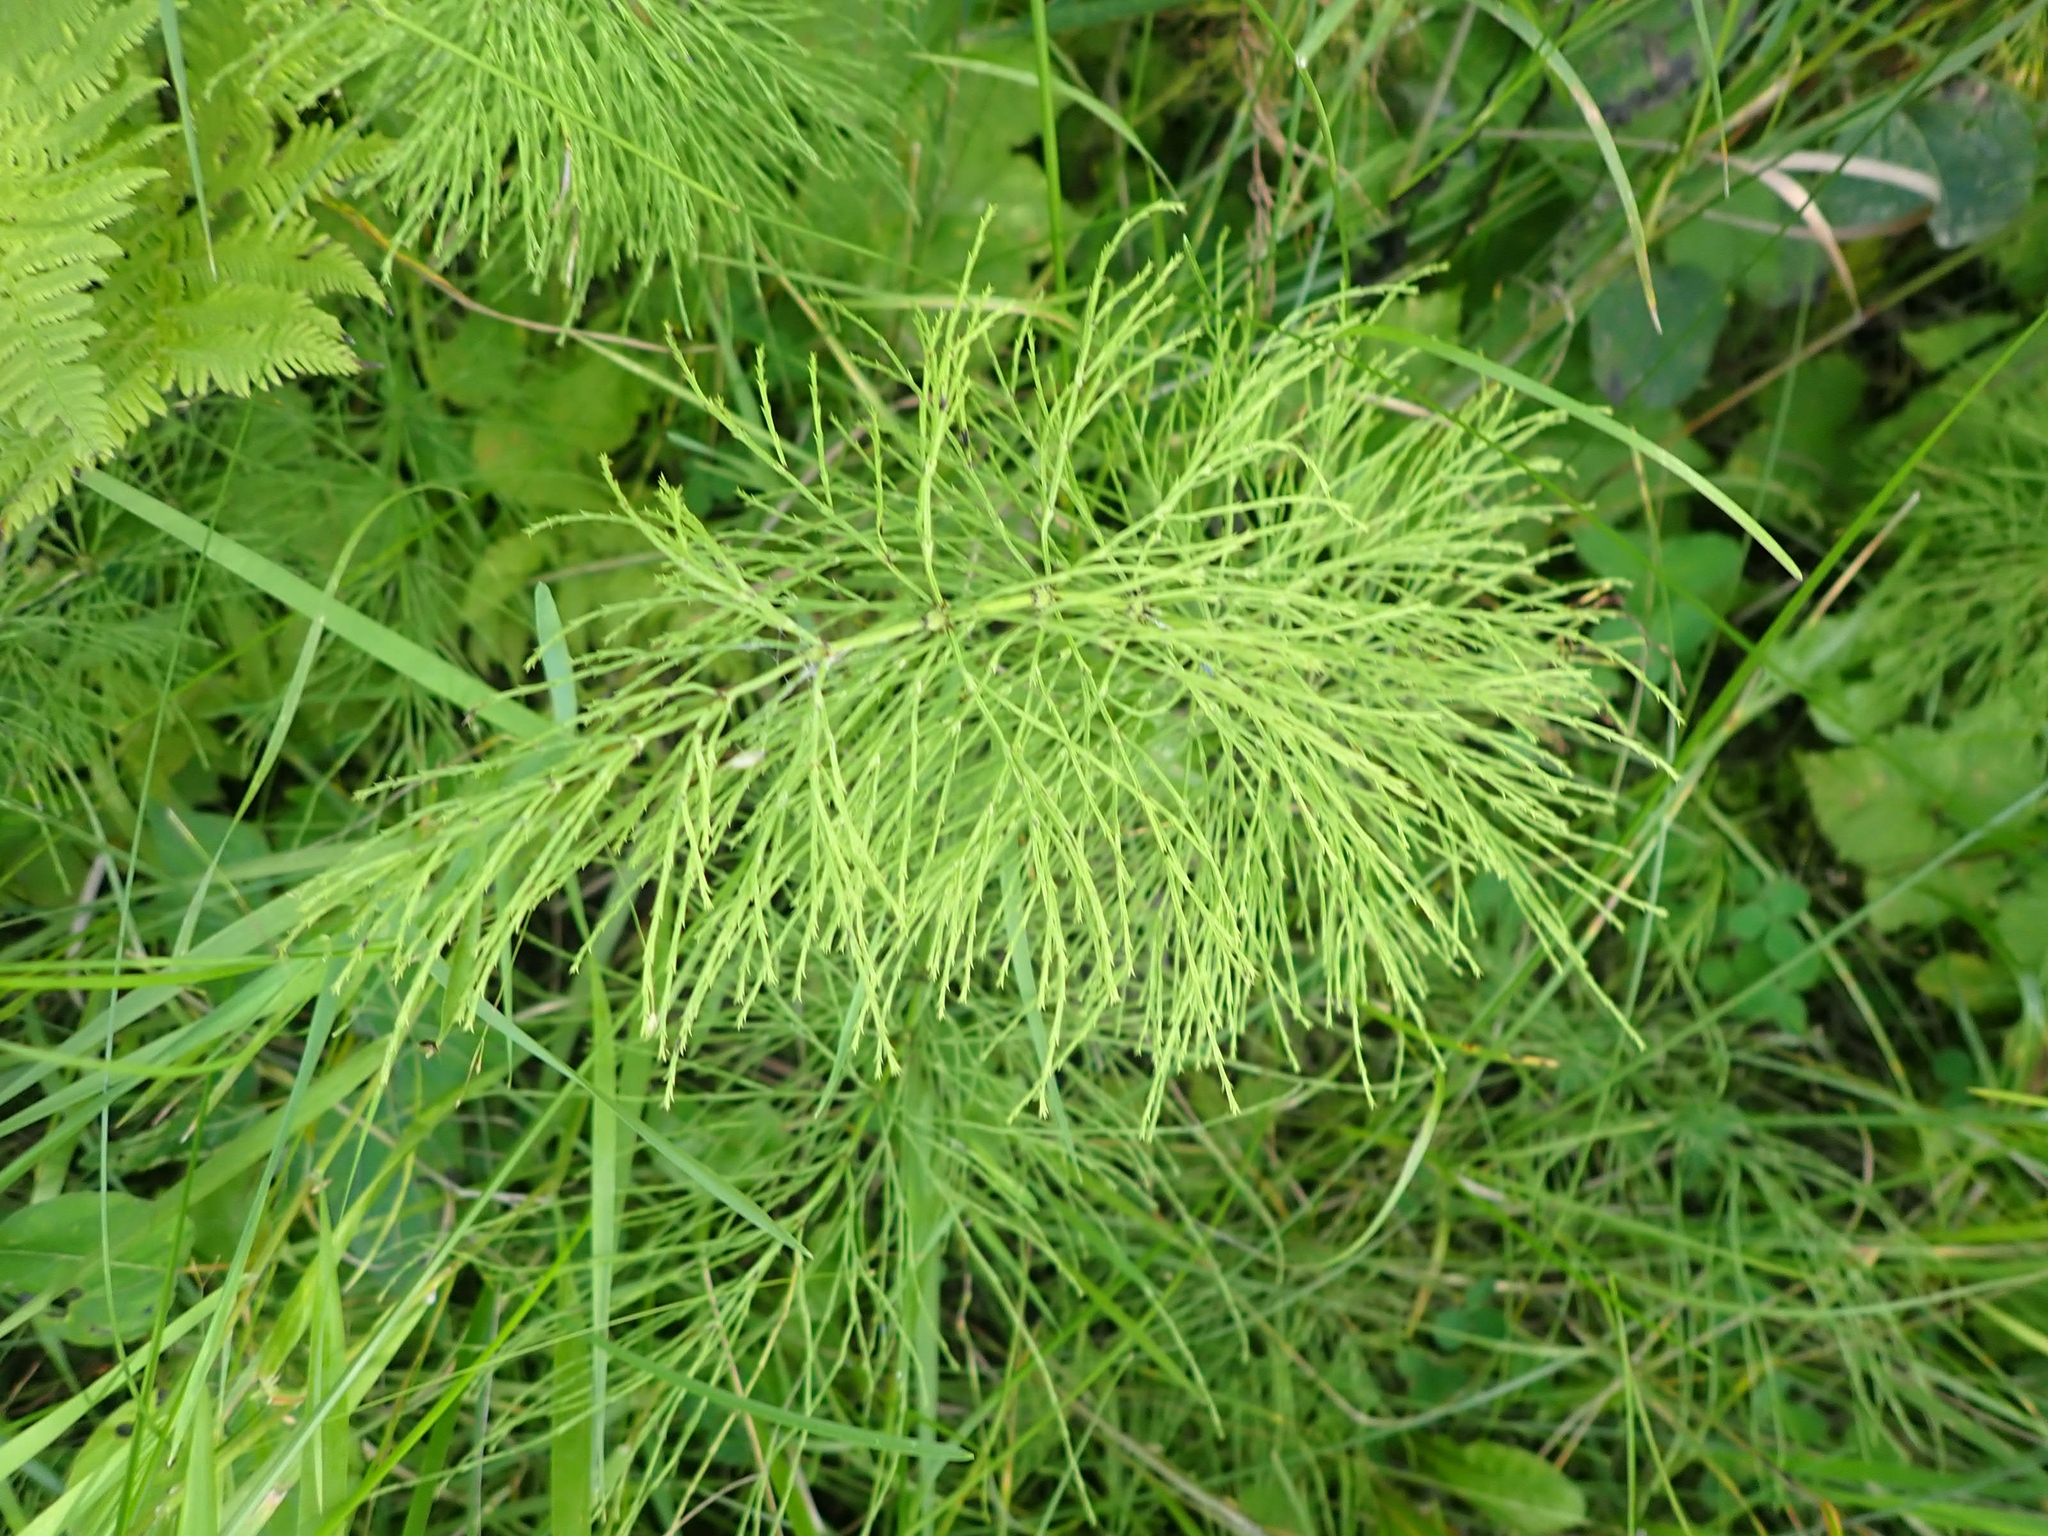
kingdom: Plantae
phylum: Tracheophyta
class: Polypodiopsida
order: Equisetales
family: Equisetaceae
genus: Equisetum
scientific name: Equisetum sylvaticum
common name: Wood horsetail
